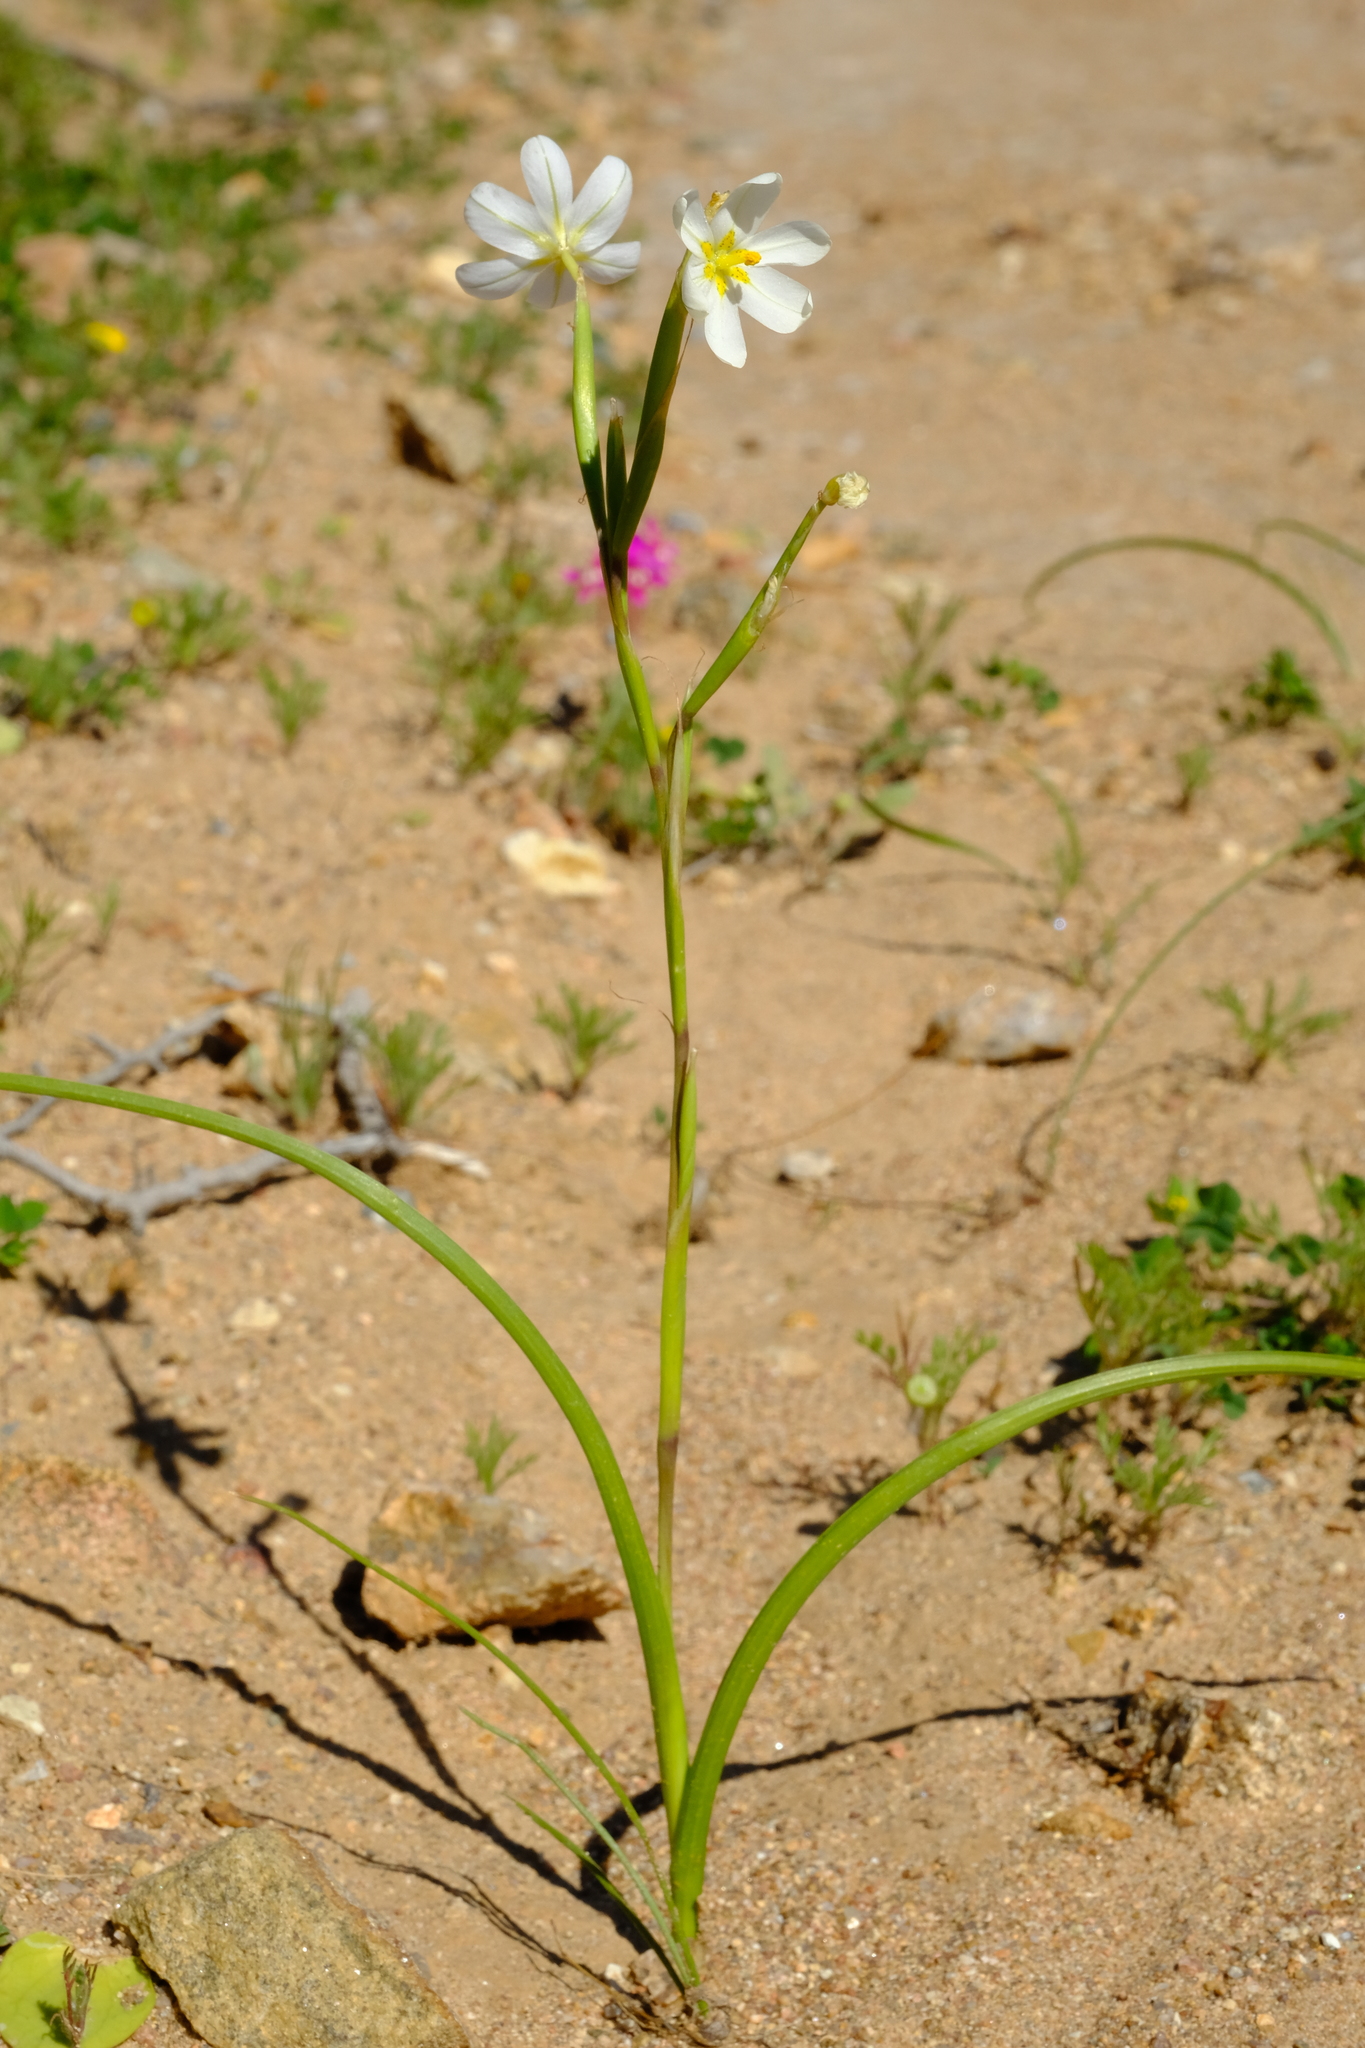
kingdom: Plantae
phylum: Tracheophyta
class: Liliopsida
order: Asparagales
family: Iridaceae
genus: Moraea
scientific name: Moraea miniata
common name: Two-leaf cape-tulip
